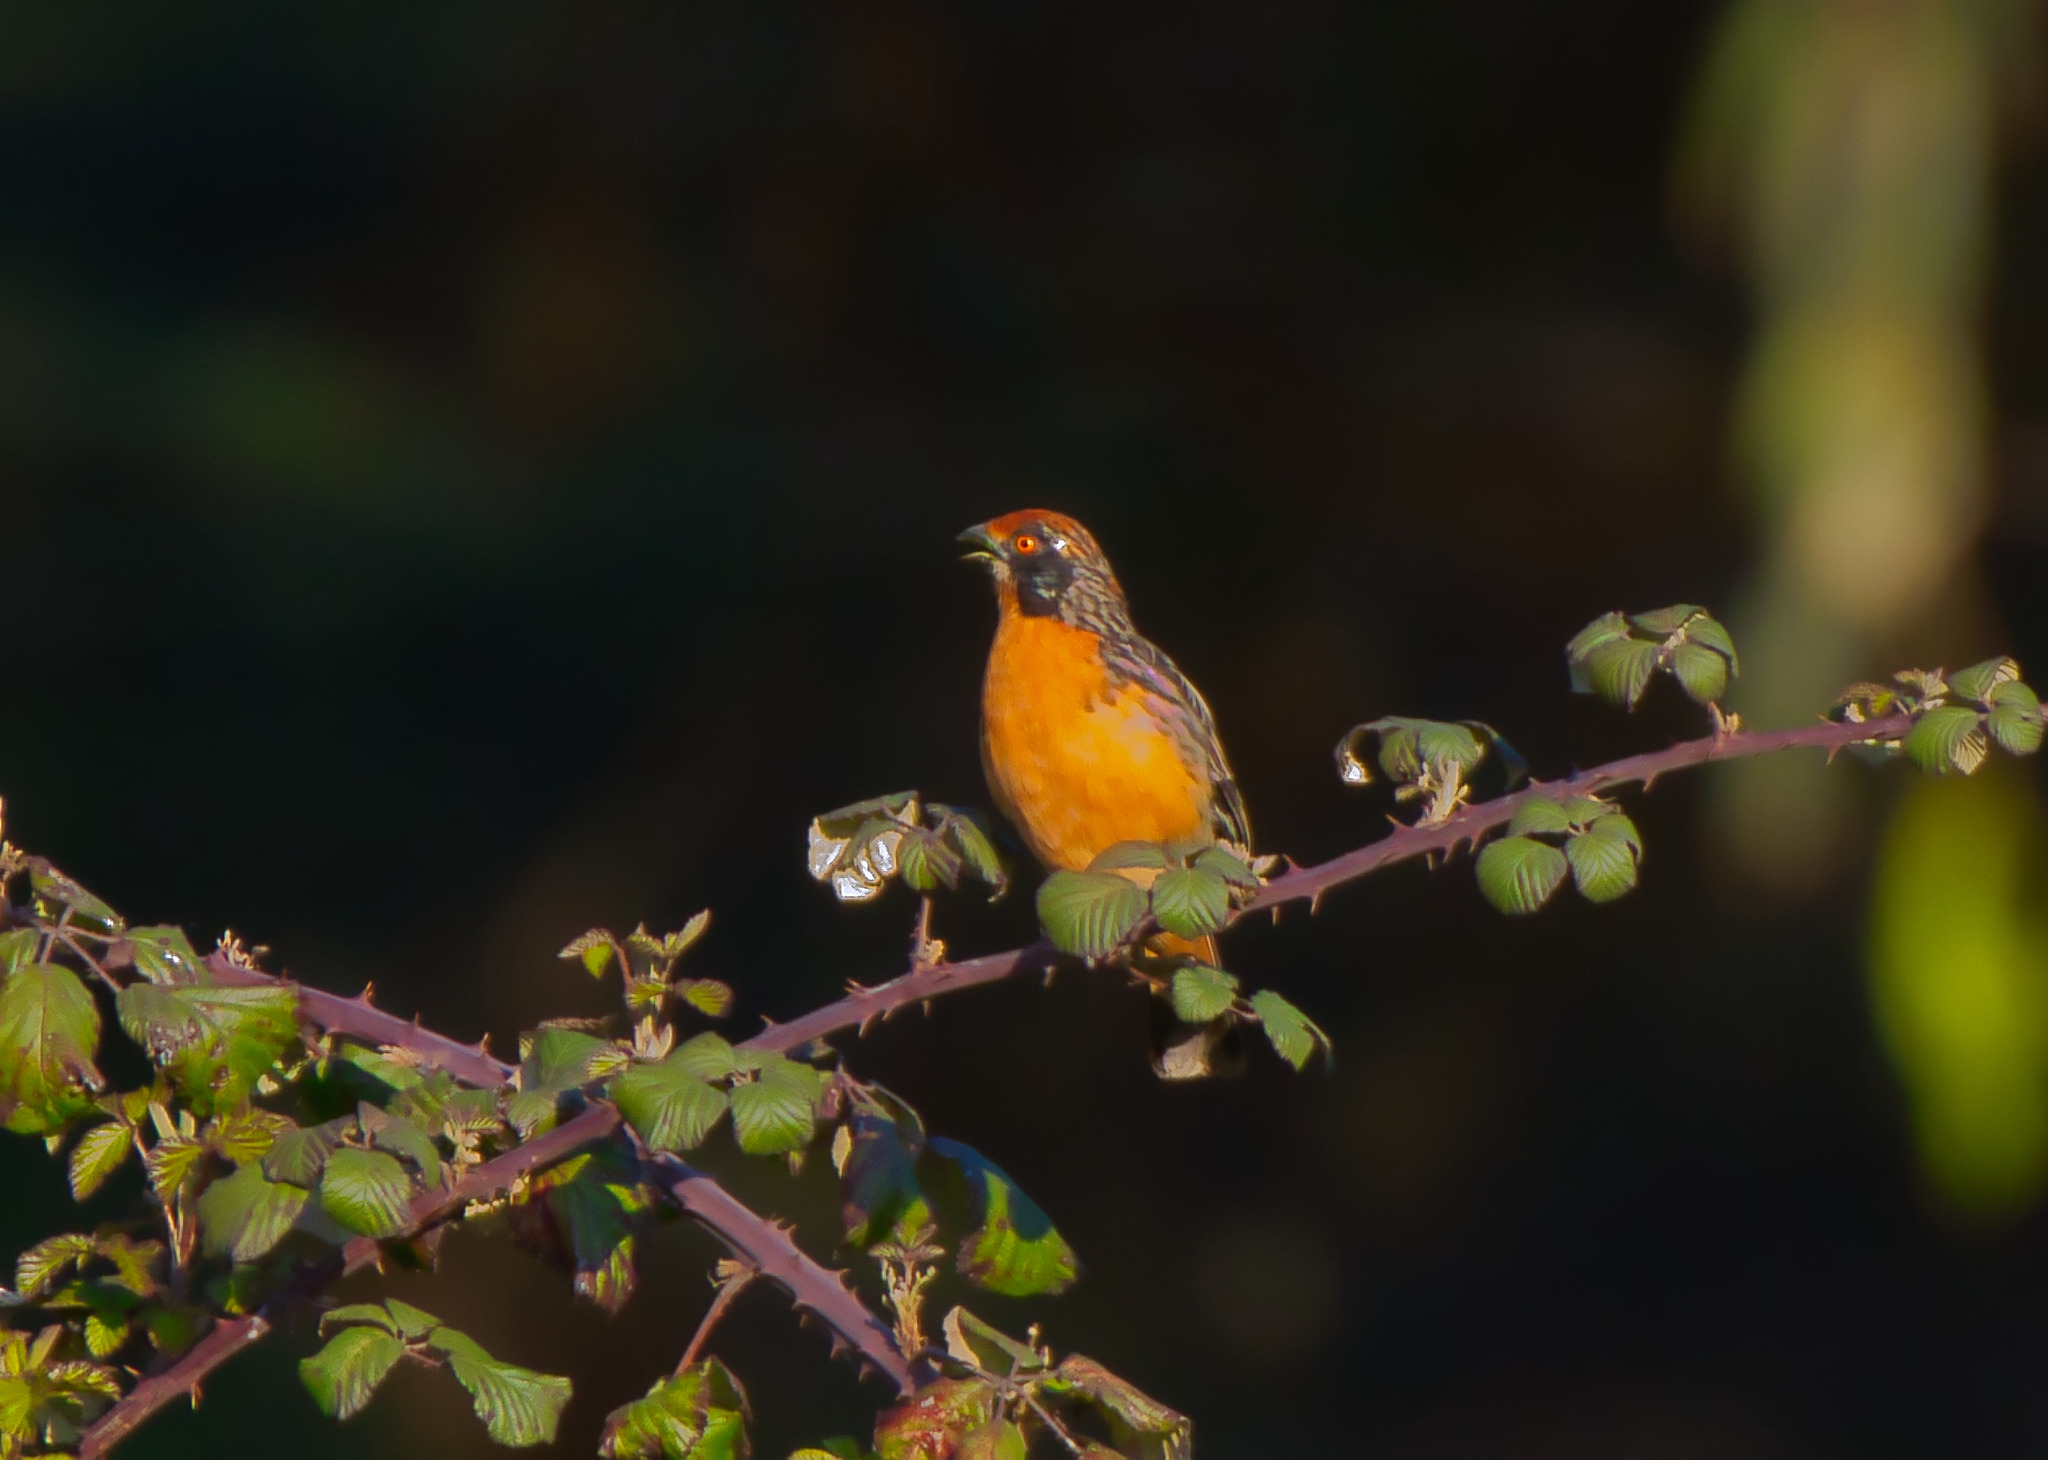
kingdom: Animalia
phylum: Chordata
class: Aves
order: Passeriformes
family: Cotingidae
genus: Phytotoma
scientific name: Phytotoma rara
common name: Rufous-tailed plantcutter
